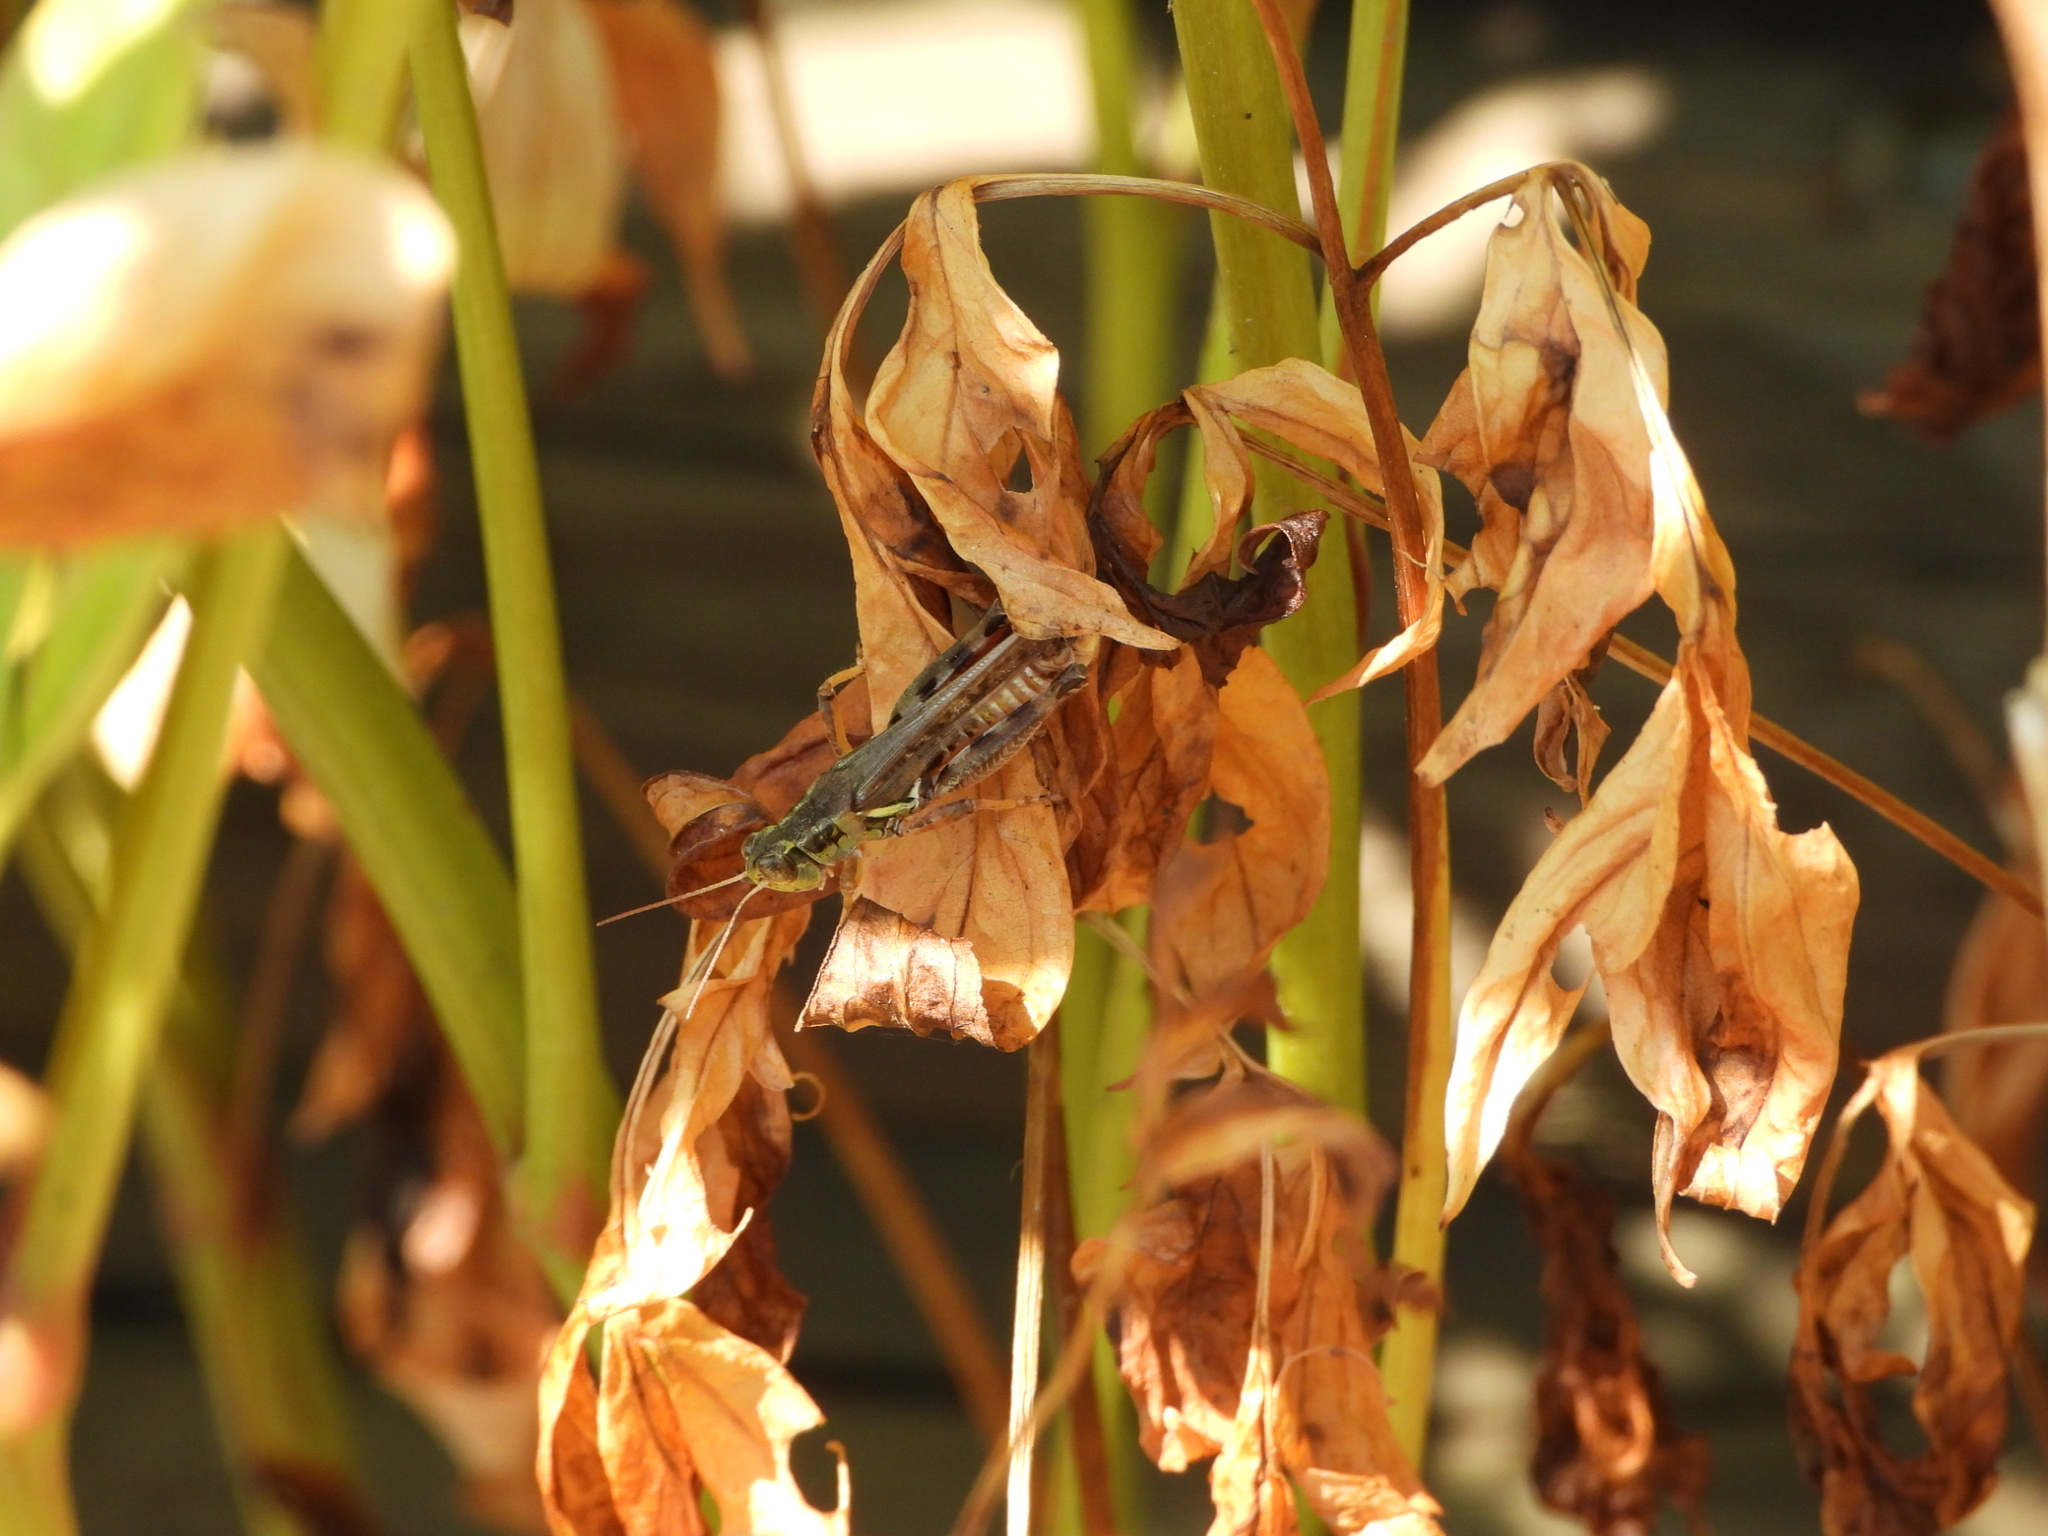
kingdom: Animalia
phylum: Arthropoda
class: Insecta
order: Orthoptera
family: Acrididae
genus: Melanoplus
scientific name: Melanoplus sanguinipes
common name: Migratory grasshopper
